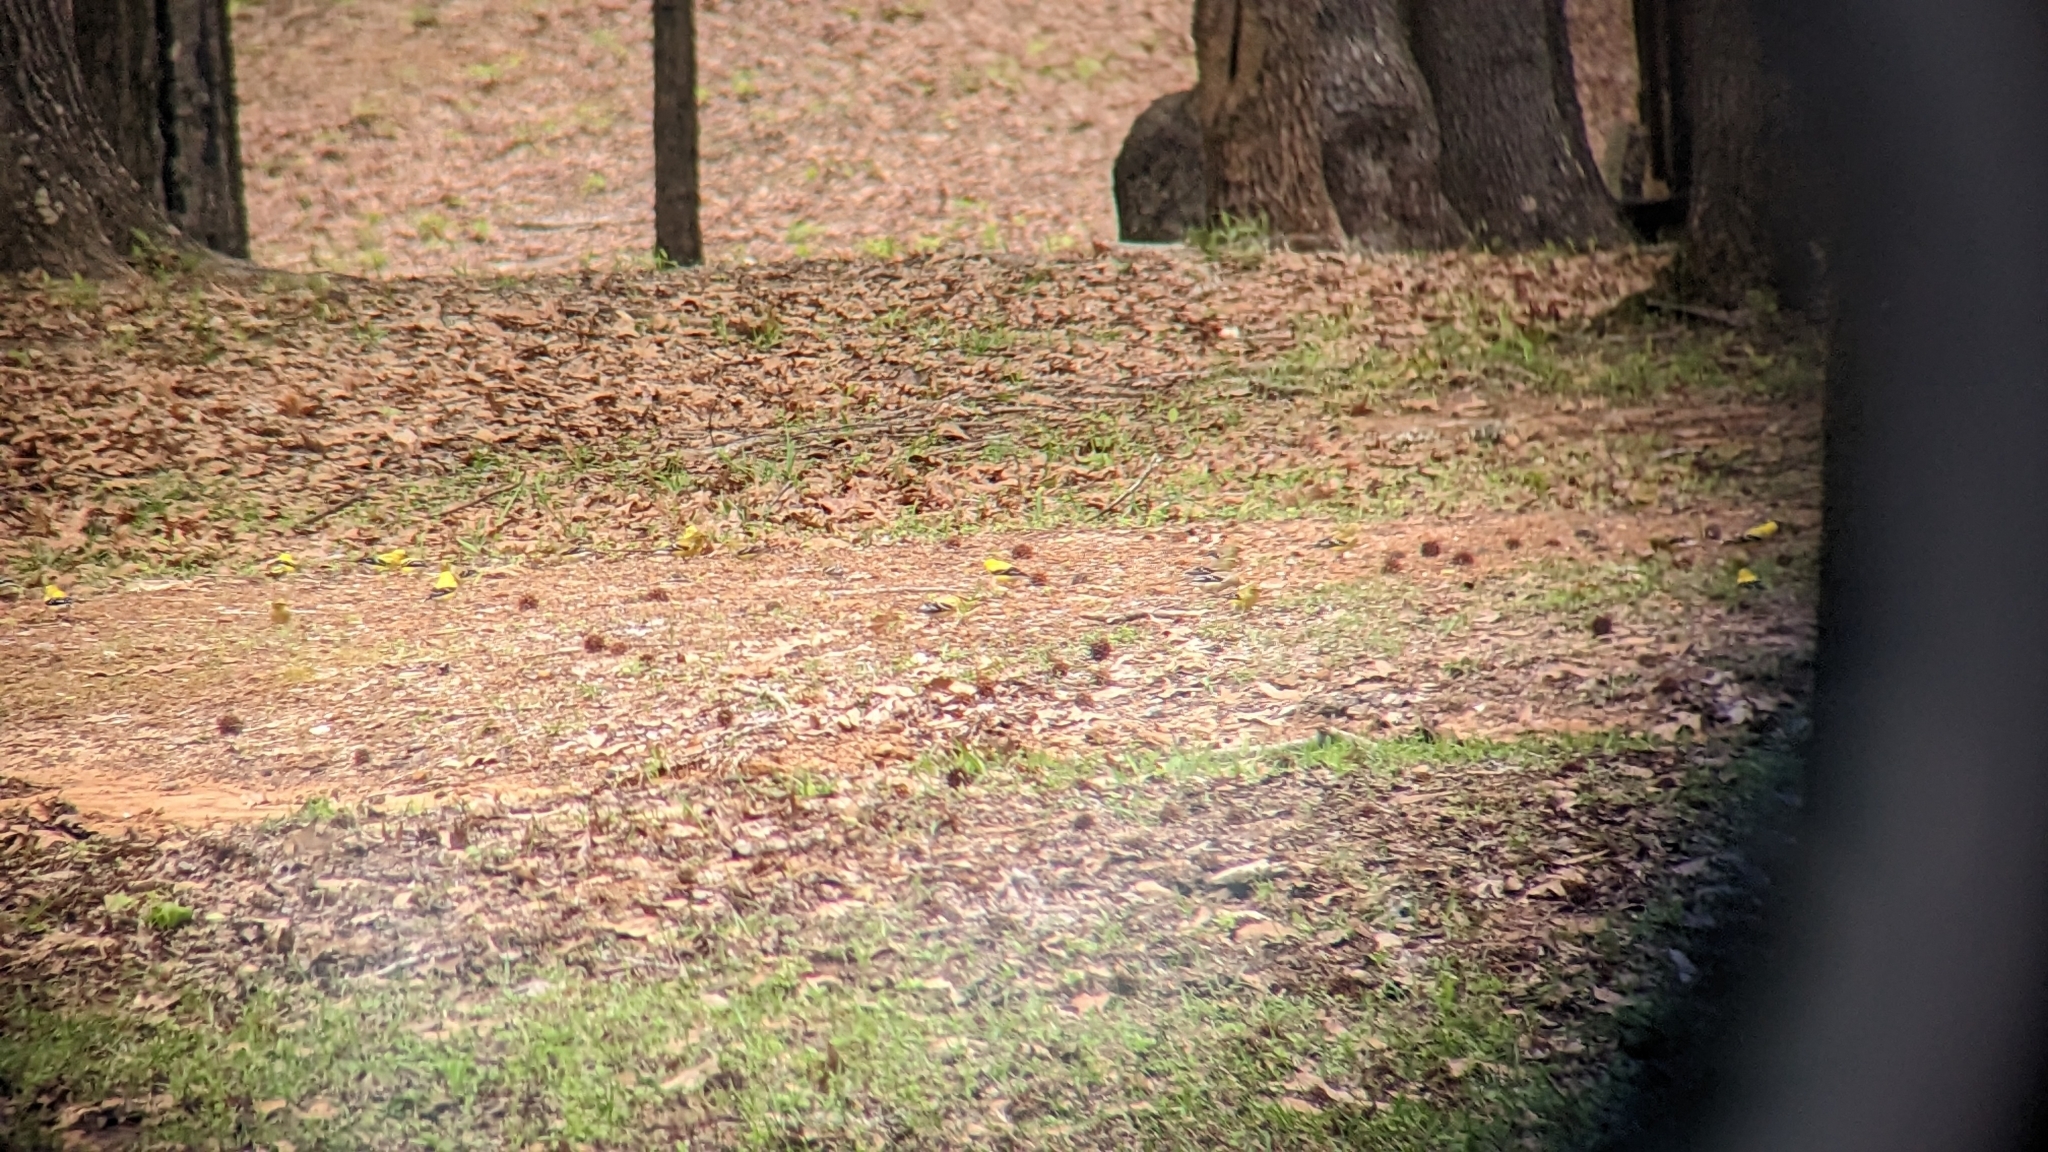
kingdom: Animalia
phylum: Chordata
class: Aves
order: Passeriformes
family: Fringillidae
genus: Spinus
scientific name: Spinus tristis
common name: American goldfinch
